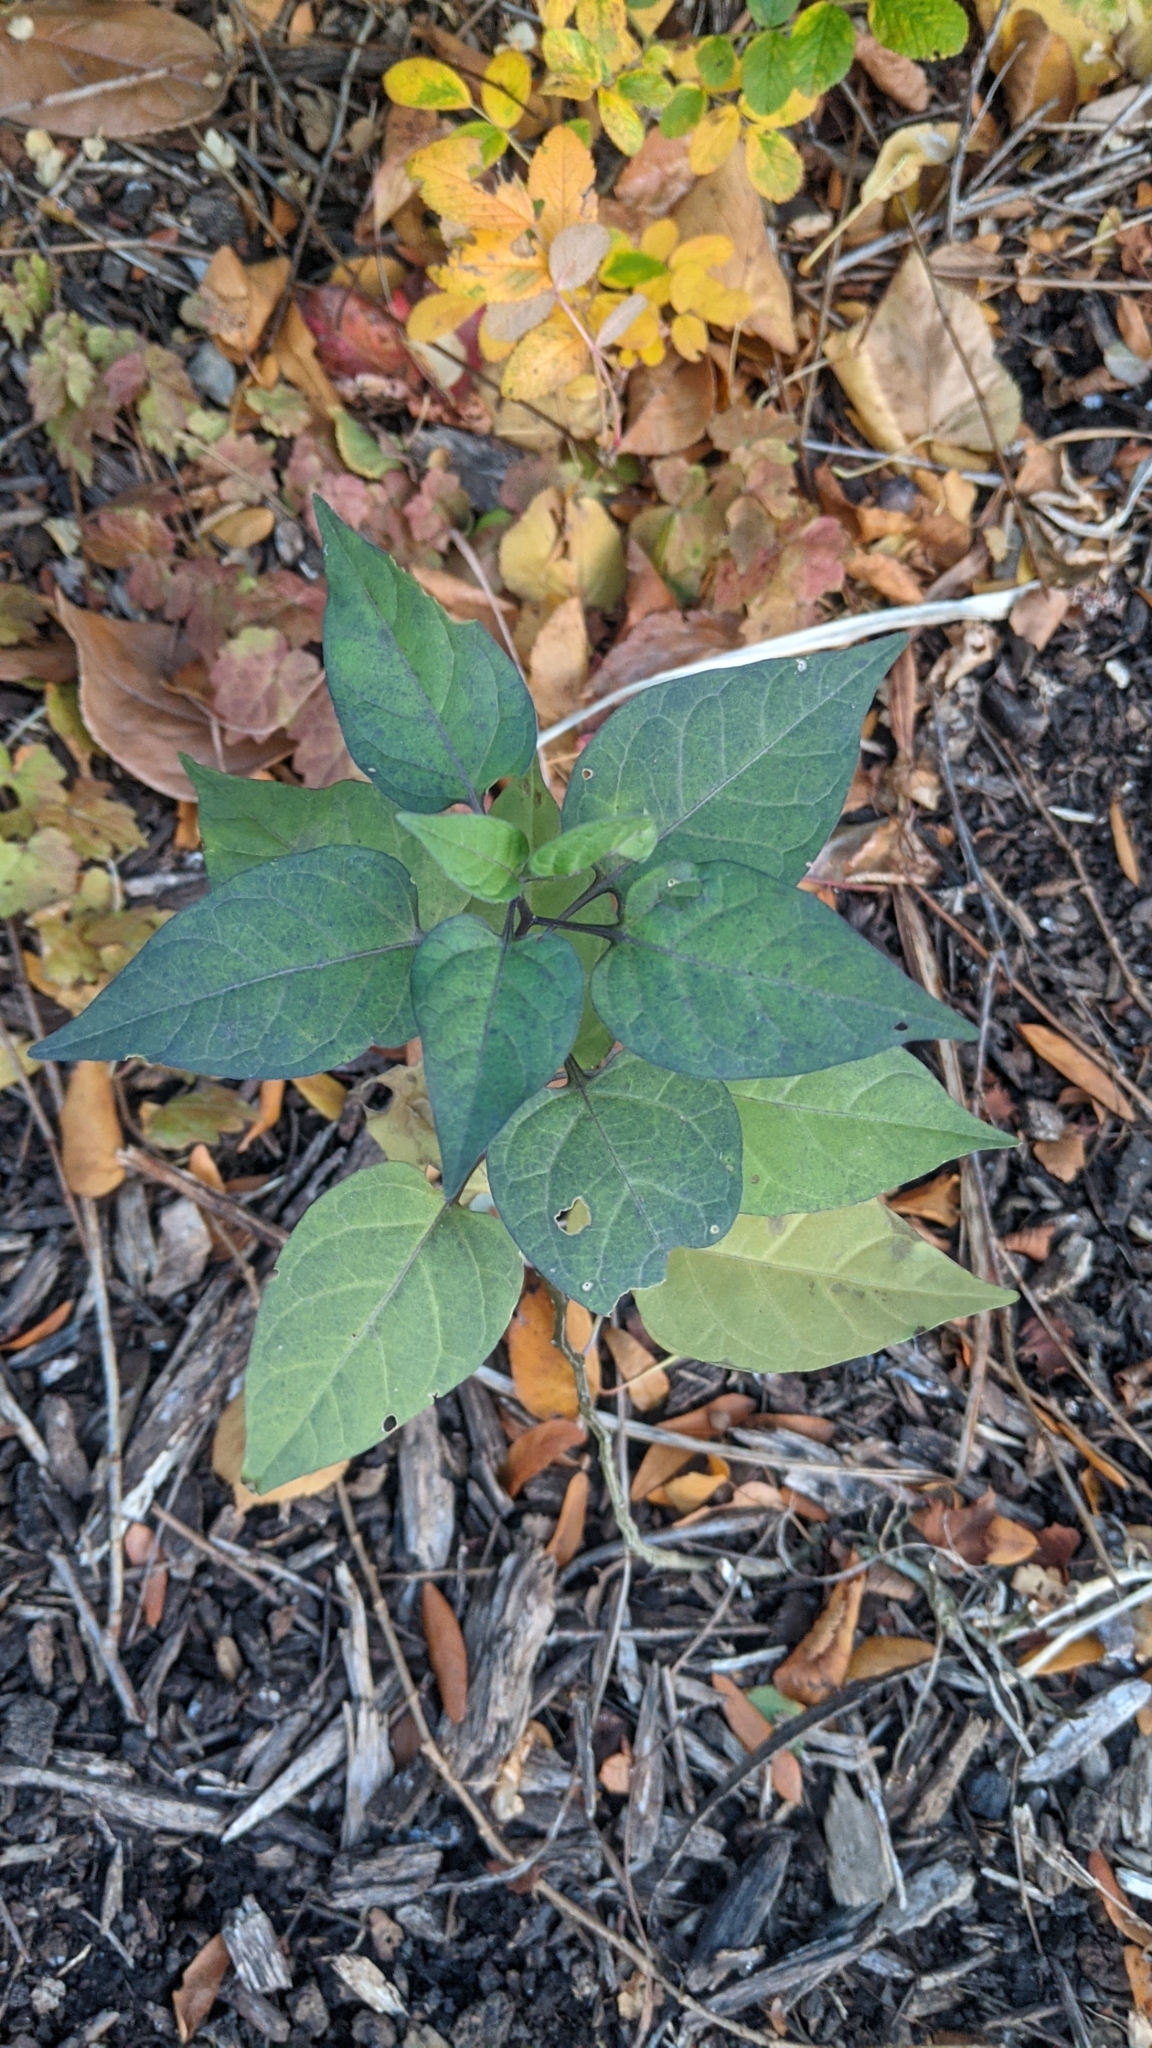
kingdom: Plantae
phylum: Tracheophyta
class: Magnoliopsida
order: Solanales
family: Solanaceae
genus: Solanum
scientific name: Solanum dulcamara
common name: Climbing nightshade
